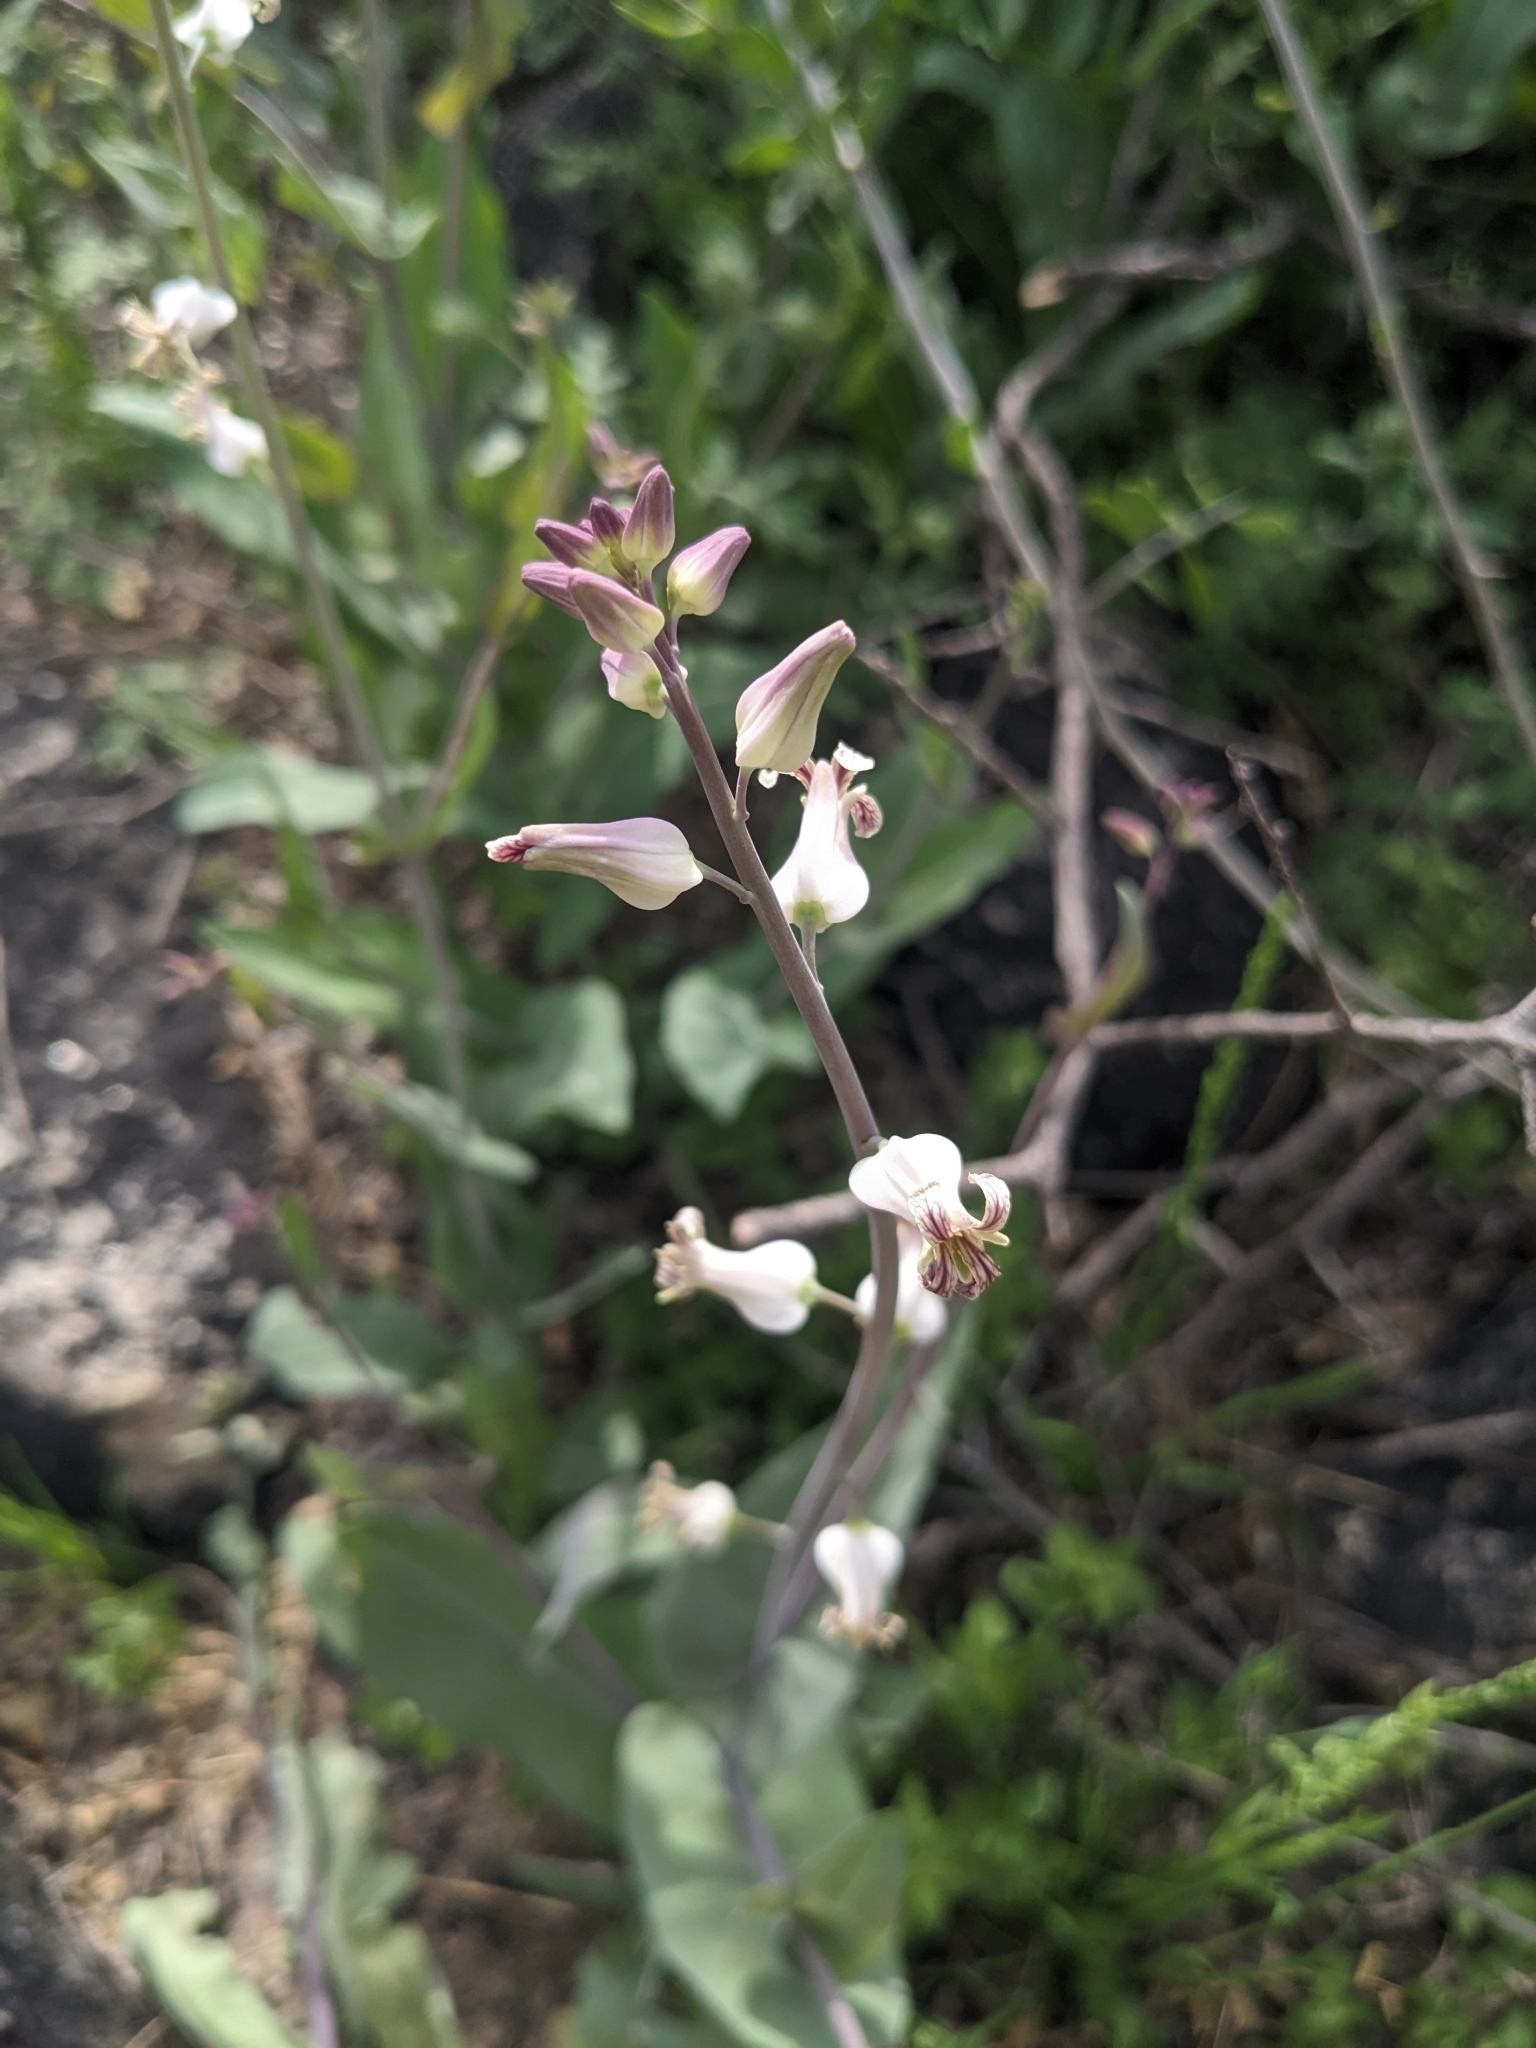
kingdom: Plantae
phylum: Tracheophyta
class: Magnoliopsida
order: Brassicales
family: Brassicaceae
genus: Streptanthus
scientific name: Streptanthus carinatus
